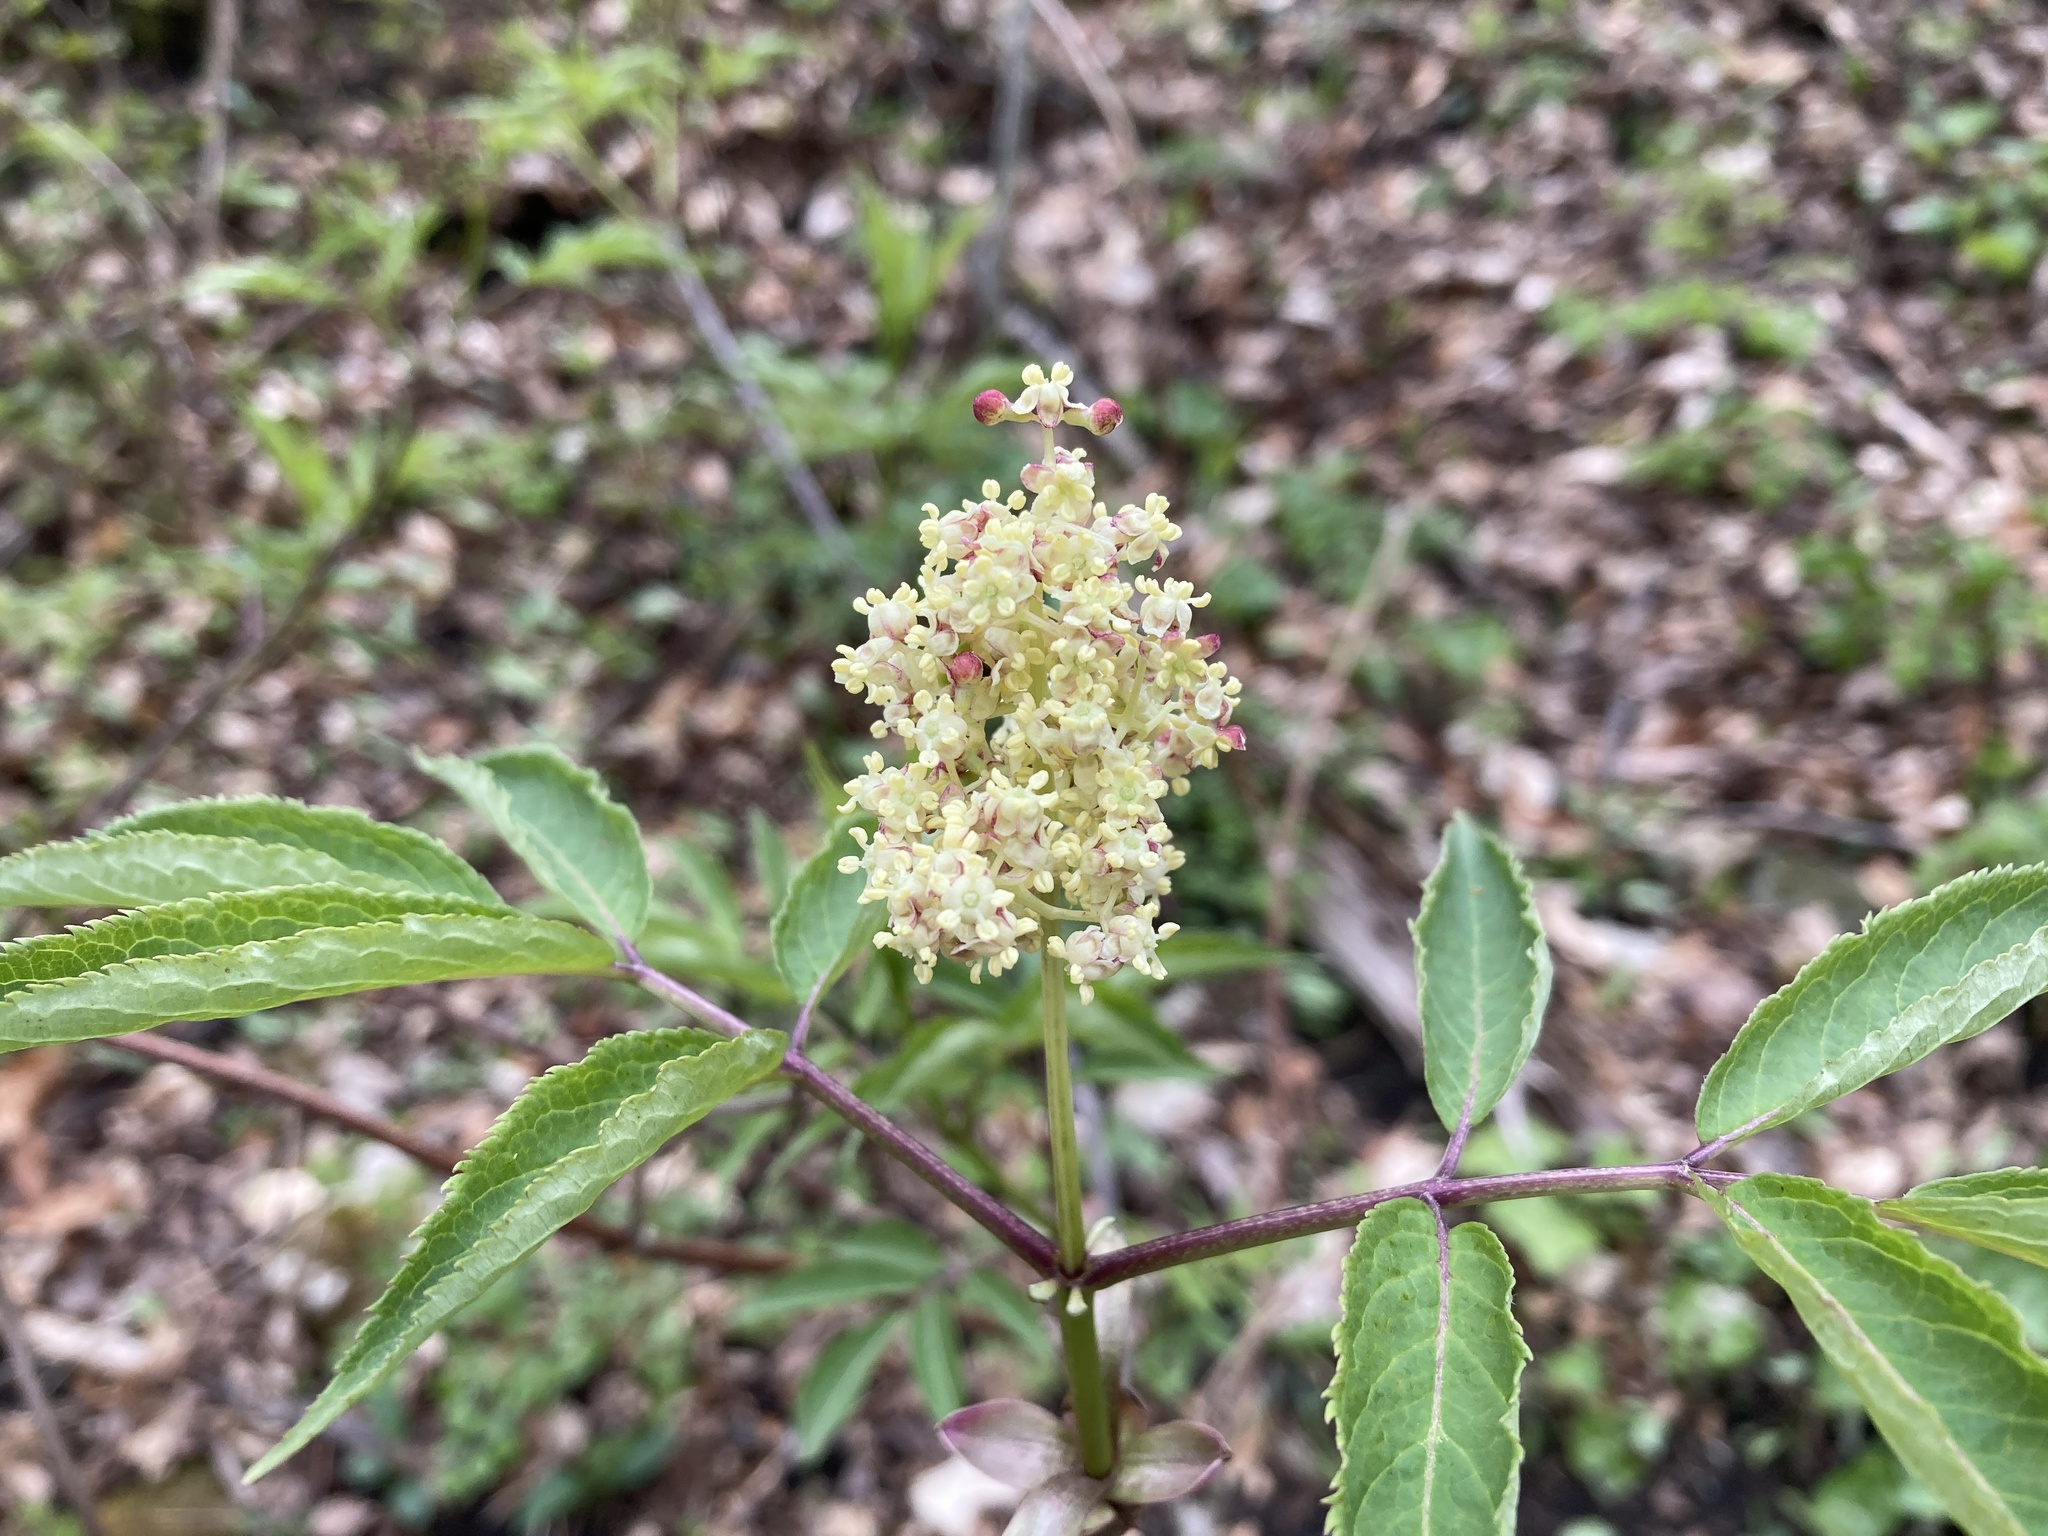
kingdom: Plantae
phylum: Tracheophyta
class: Magnoliopsida
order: Dipsacales
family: Viburnaceae
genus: Sambucus
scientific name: Sambucus racemosa
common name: Red-berried elder
